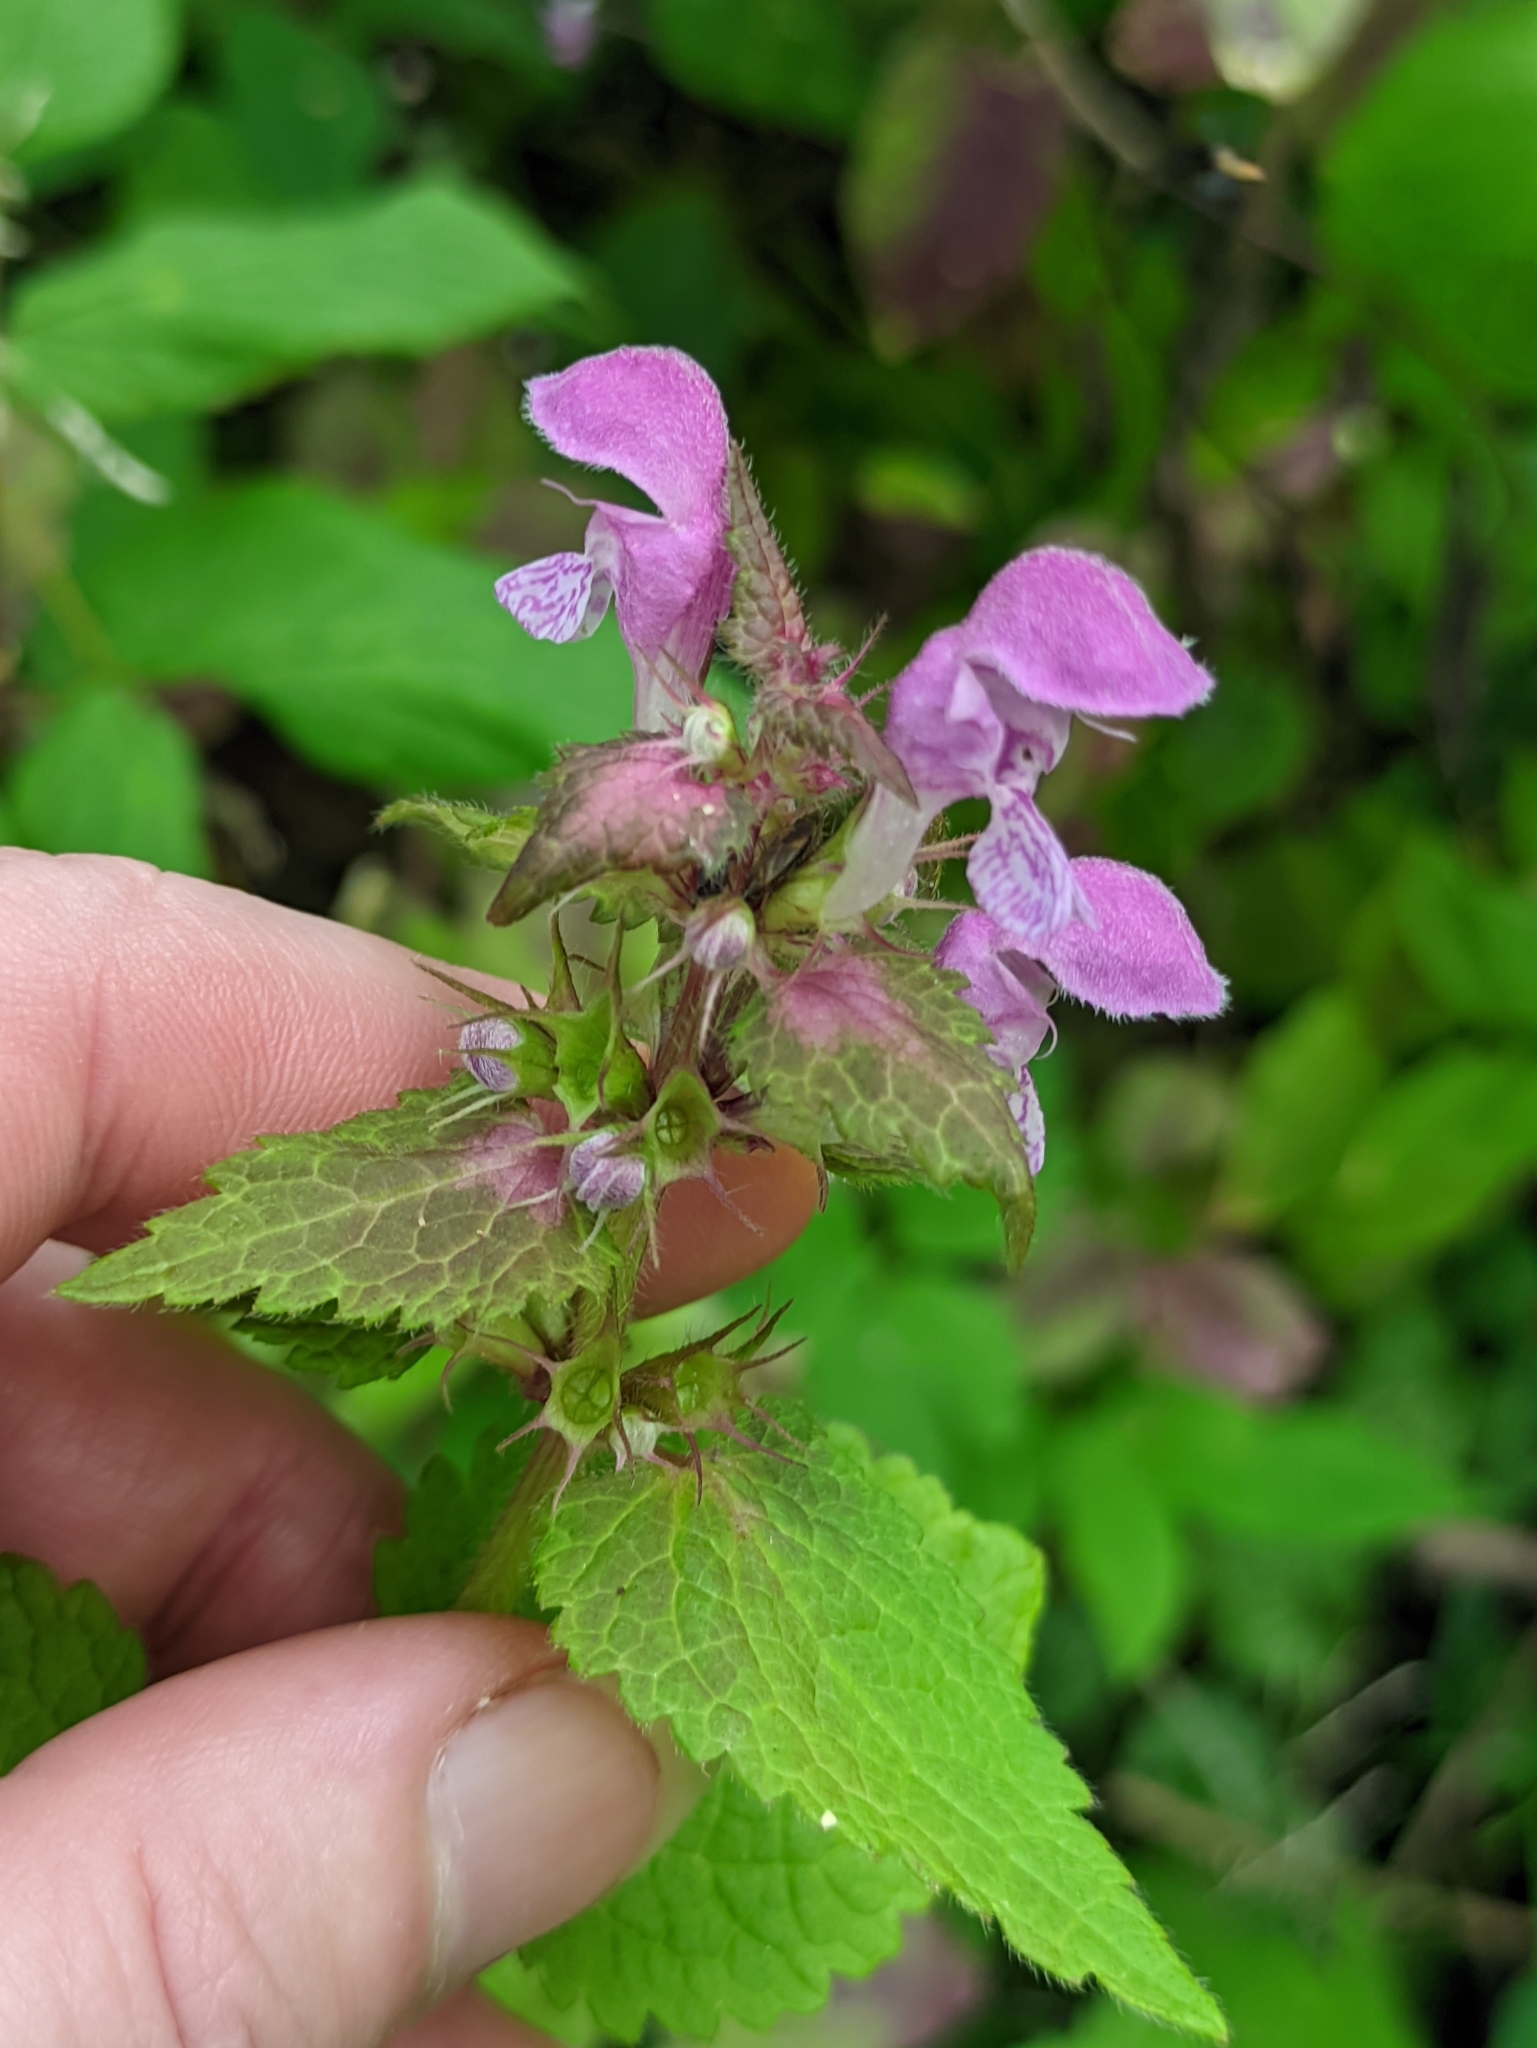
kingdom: Plantae
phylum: Tracheophyta
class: Magnoliopsida
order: Lamiales
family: Lamiaceae
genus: Lamium
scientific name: Lamium maculatum
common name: Spotted dead-nettle
